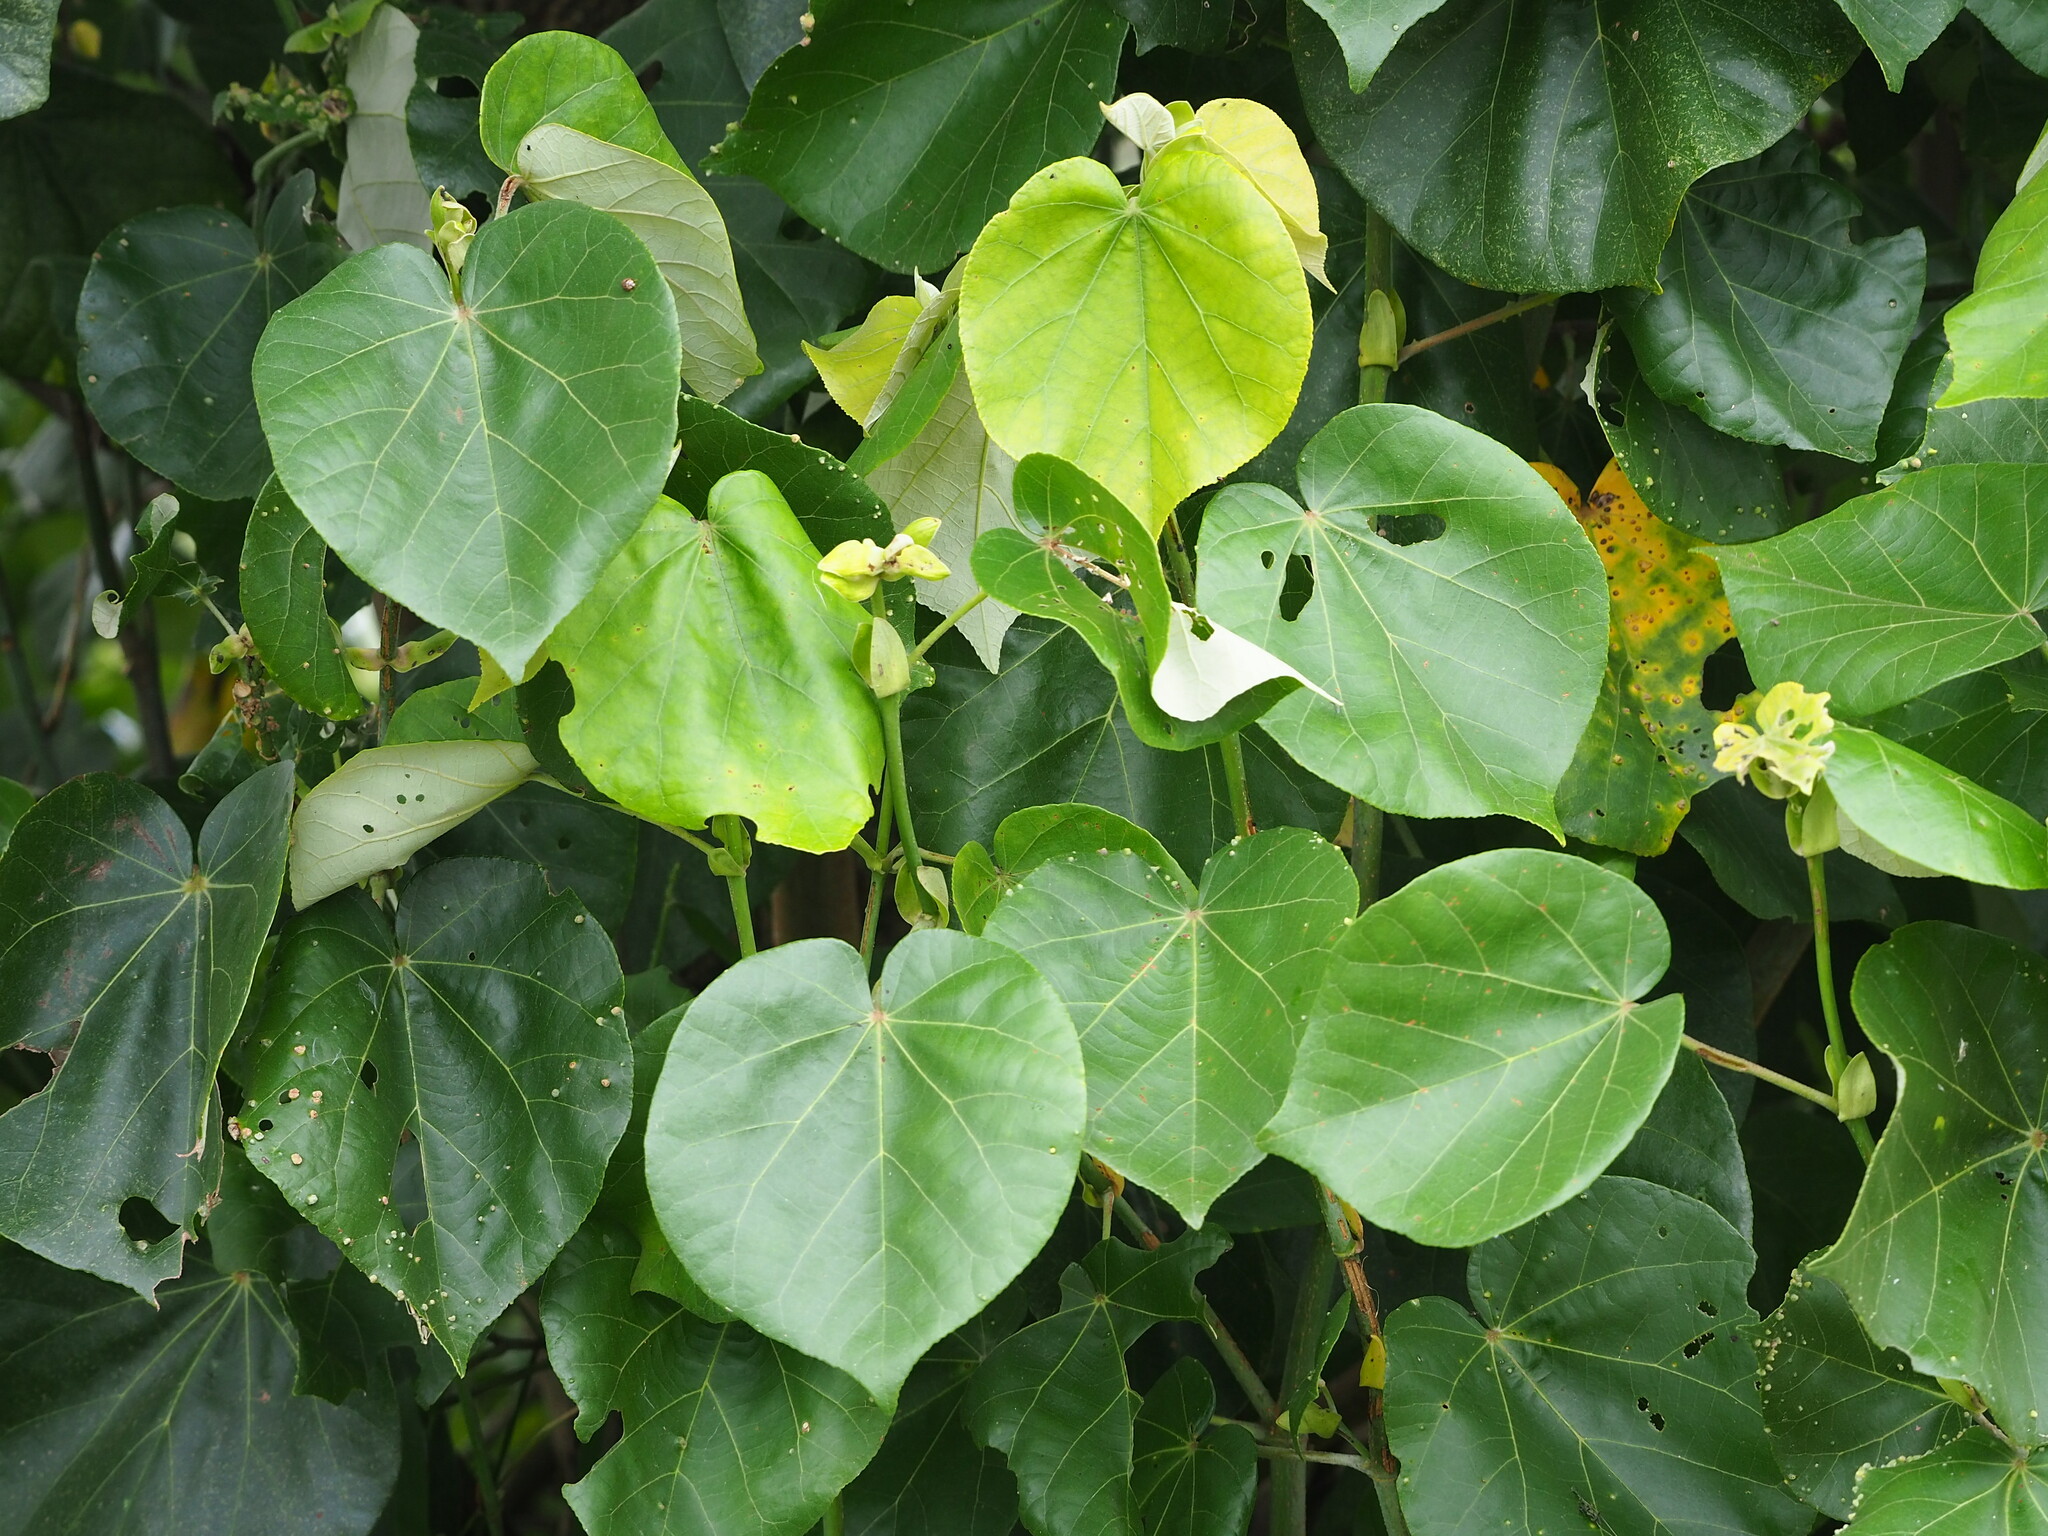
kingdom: Plantae
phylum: Tracheophyta
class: Magnoliopsida
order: Malvales
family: Malvaceae
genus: Talipariti
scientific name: Talipariti tiliaceum
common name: Sea hibiscus
